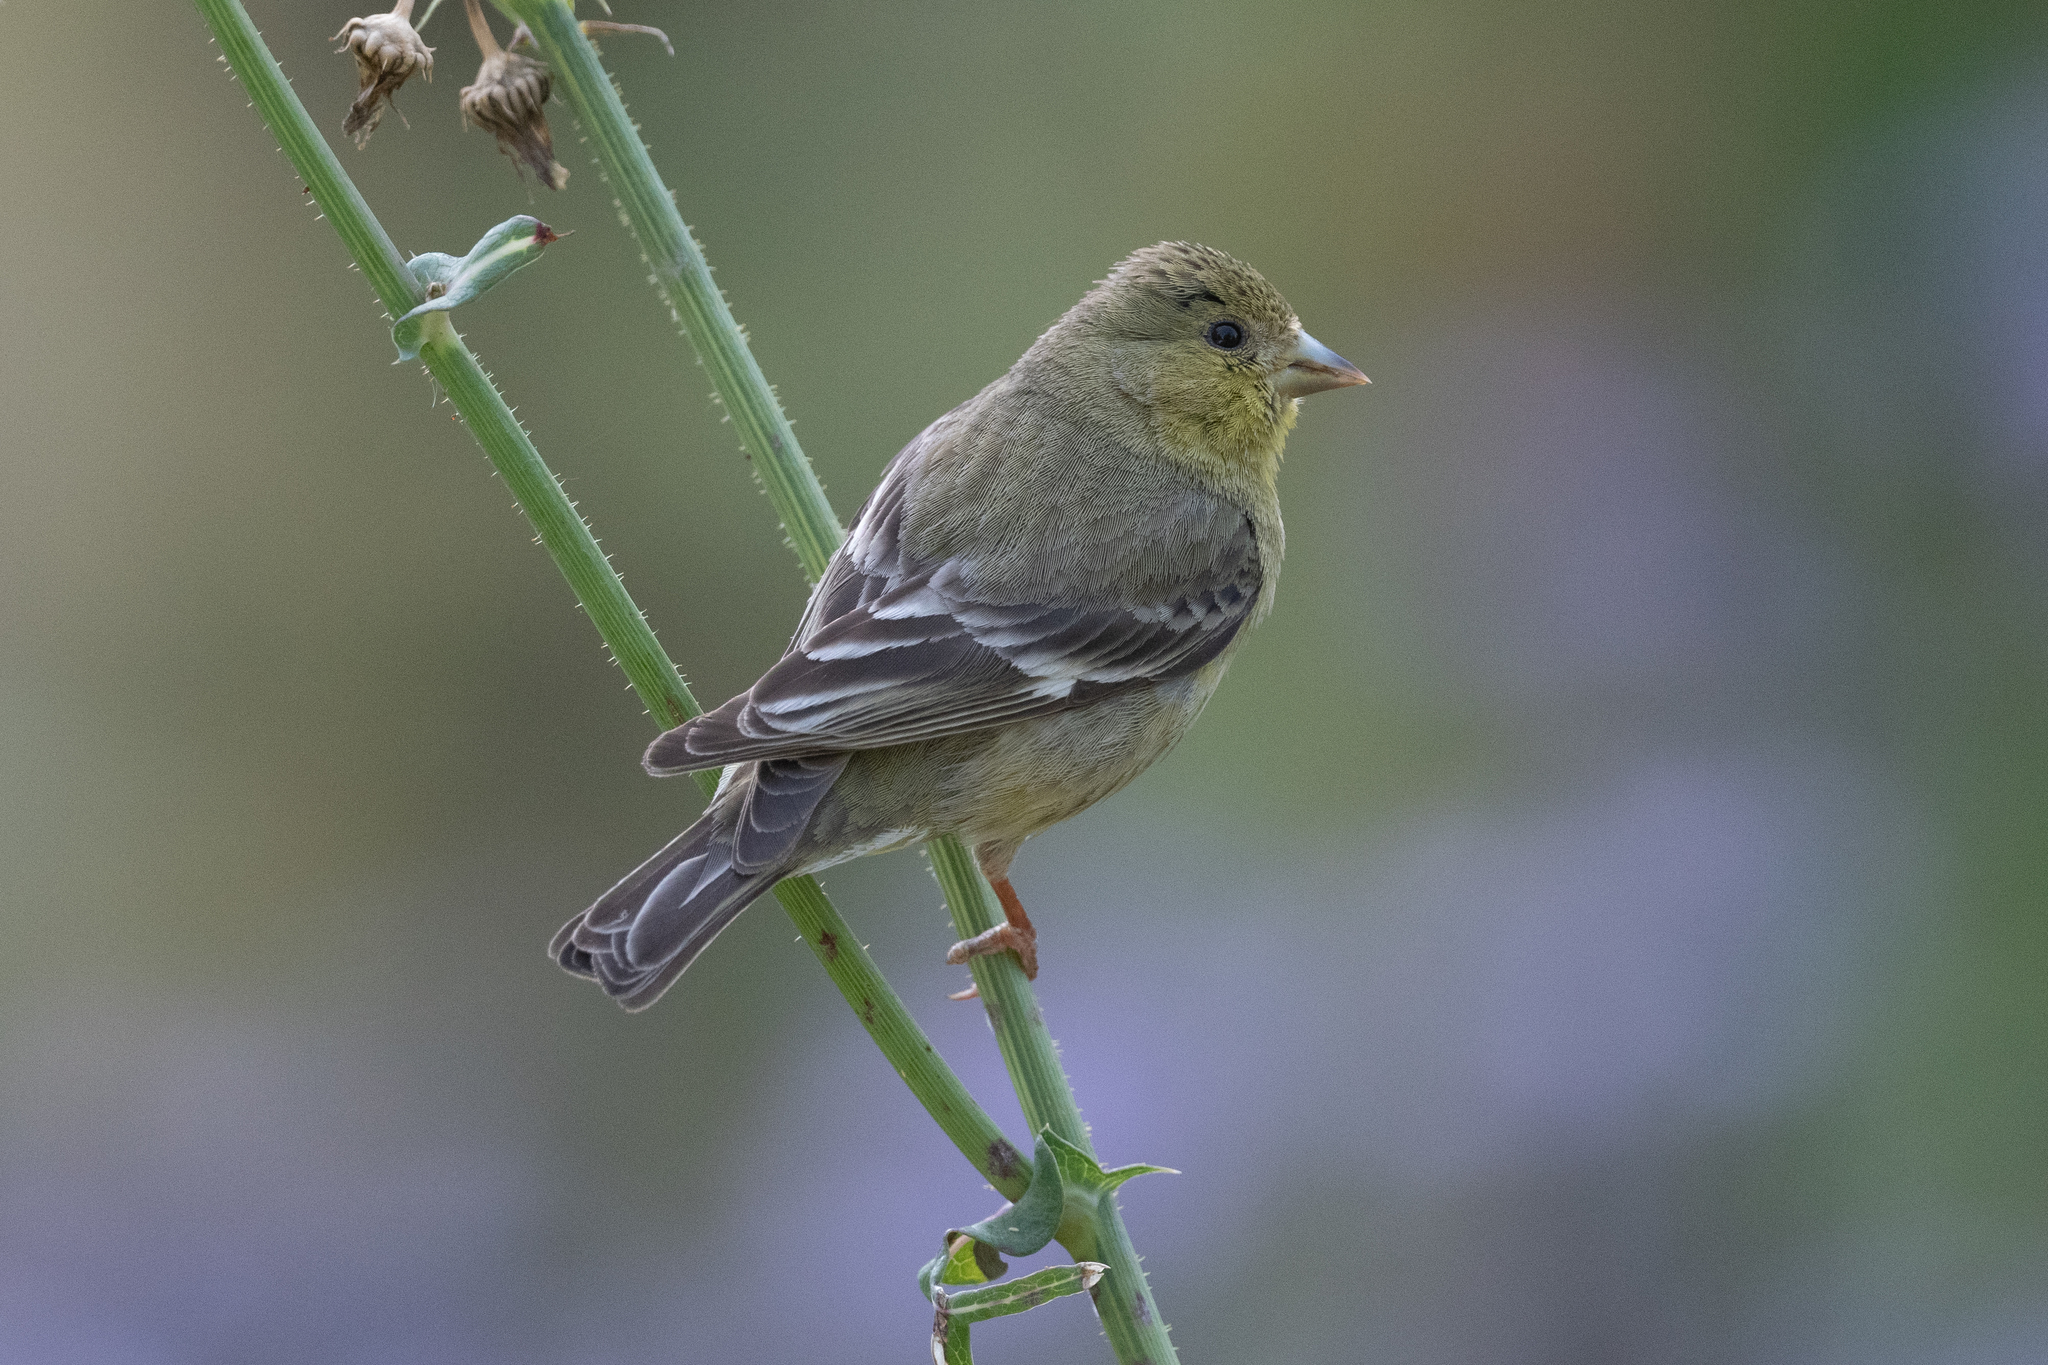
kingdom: Animalia
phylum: Chordata
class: Aves
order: Passeriformes
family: Fringillidae
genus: Spinus
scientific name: Spinus psaltria
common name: Lesser goldfinch
